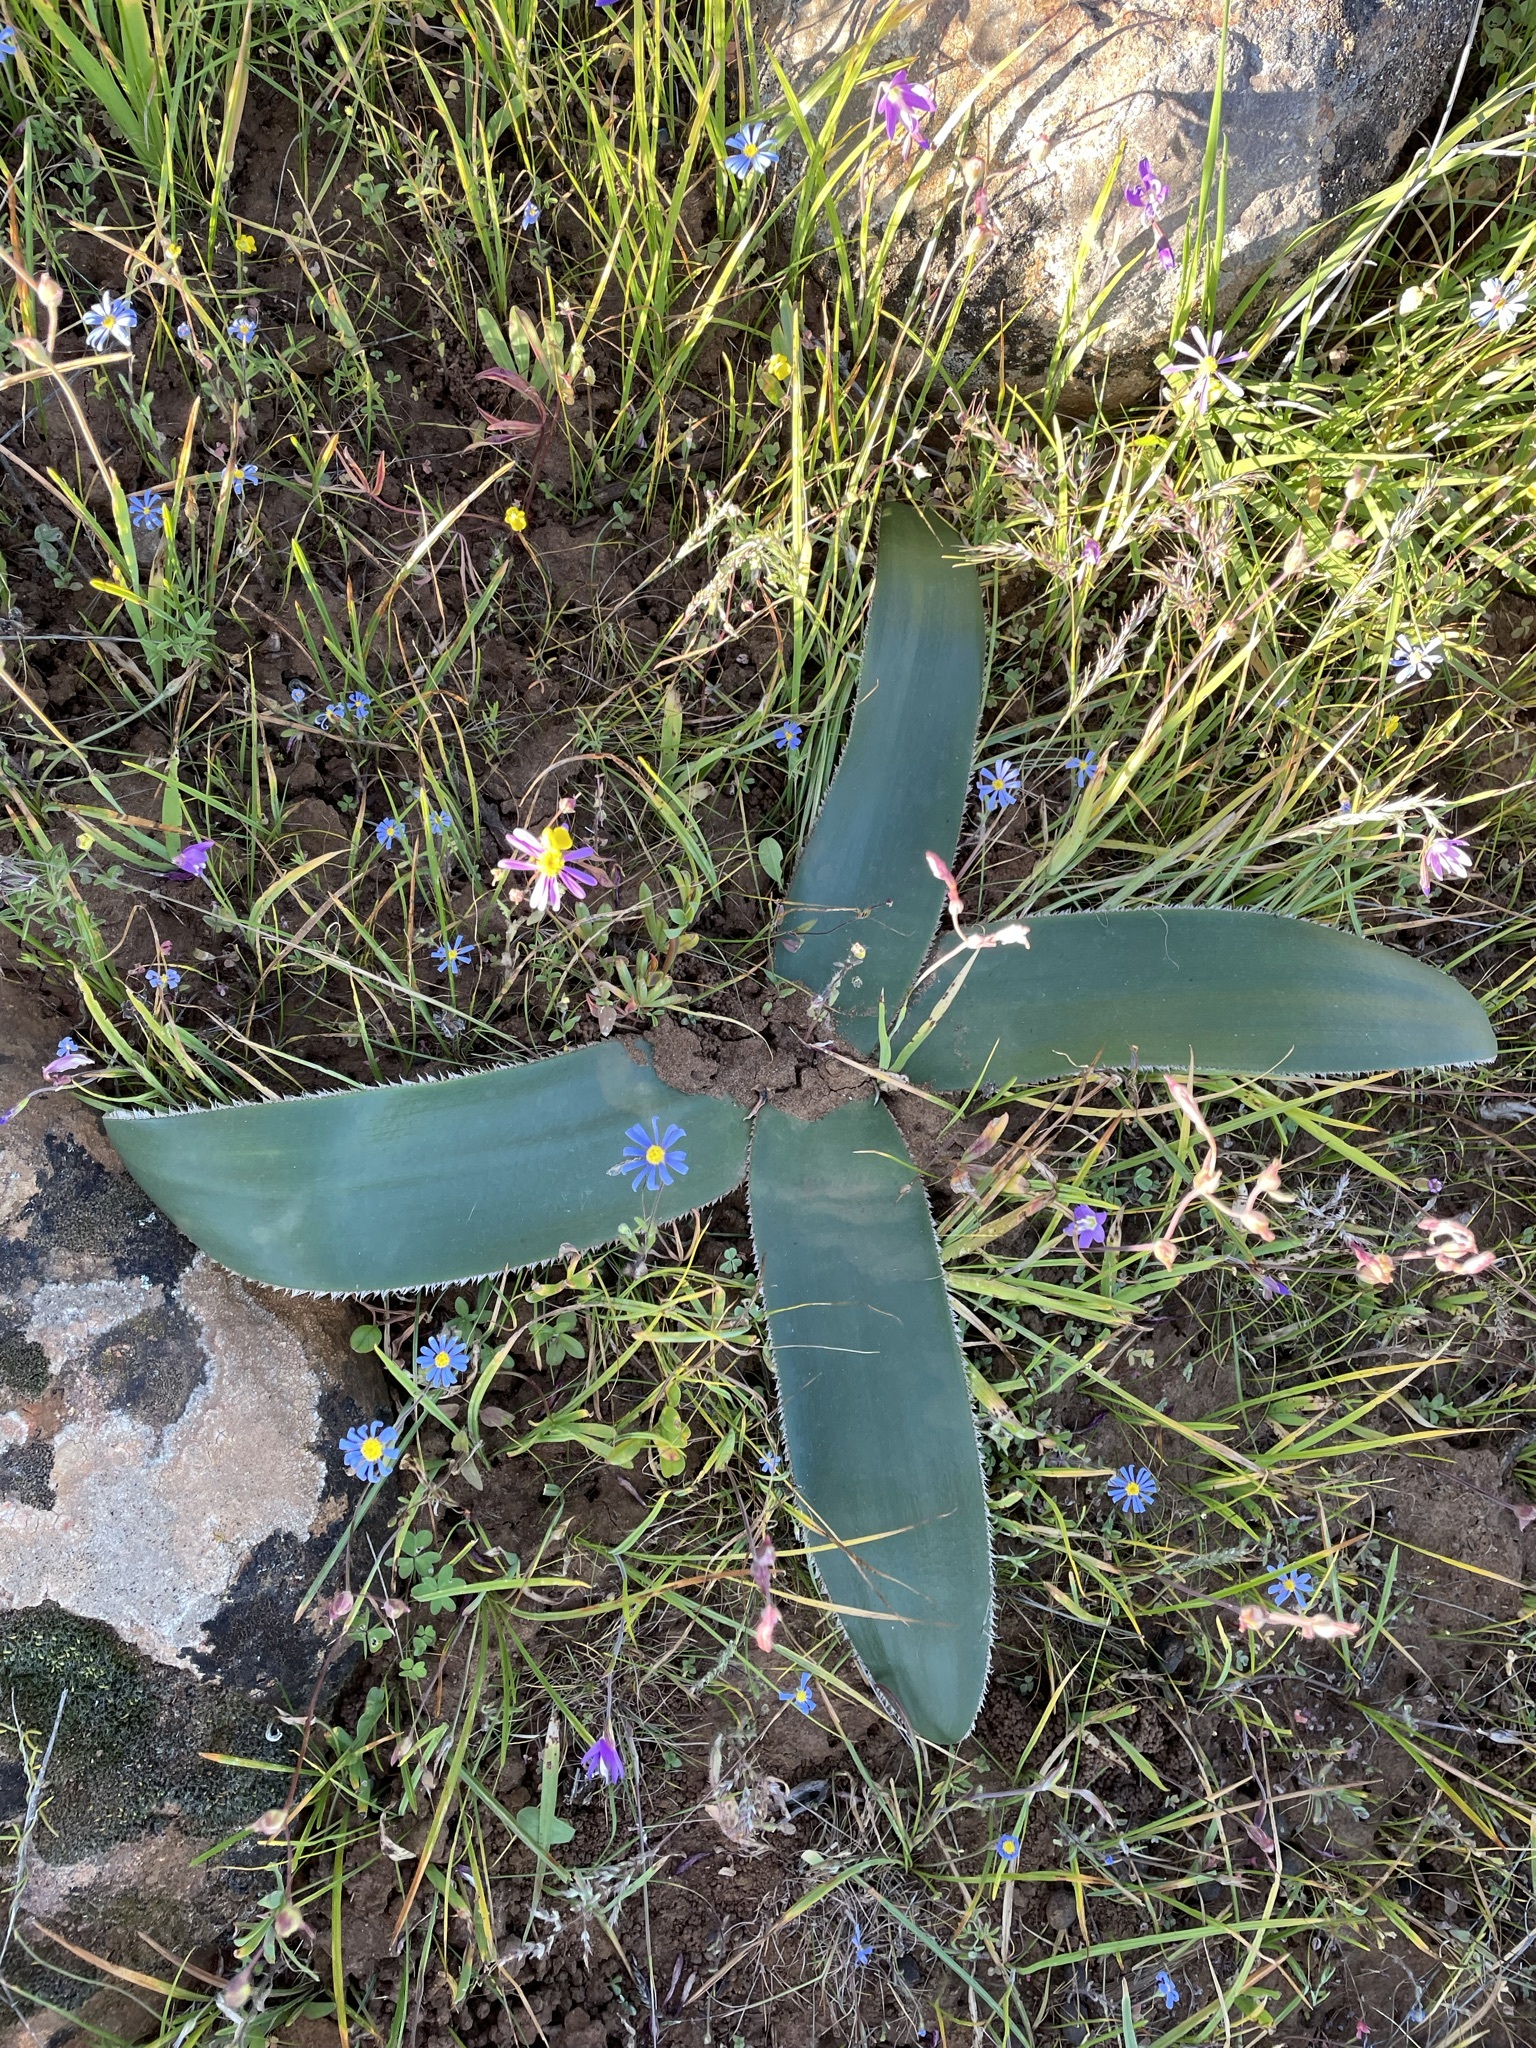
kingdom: Plantae
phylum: Tracheophyta
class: Liliopsida
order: Asparagales
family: Amaryllidaceae
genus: Crossyne
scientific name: Crossyne flava
